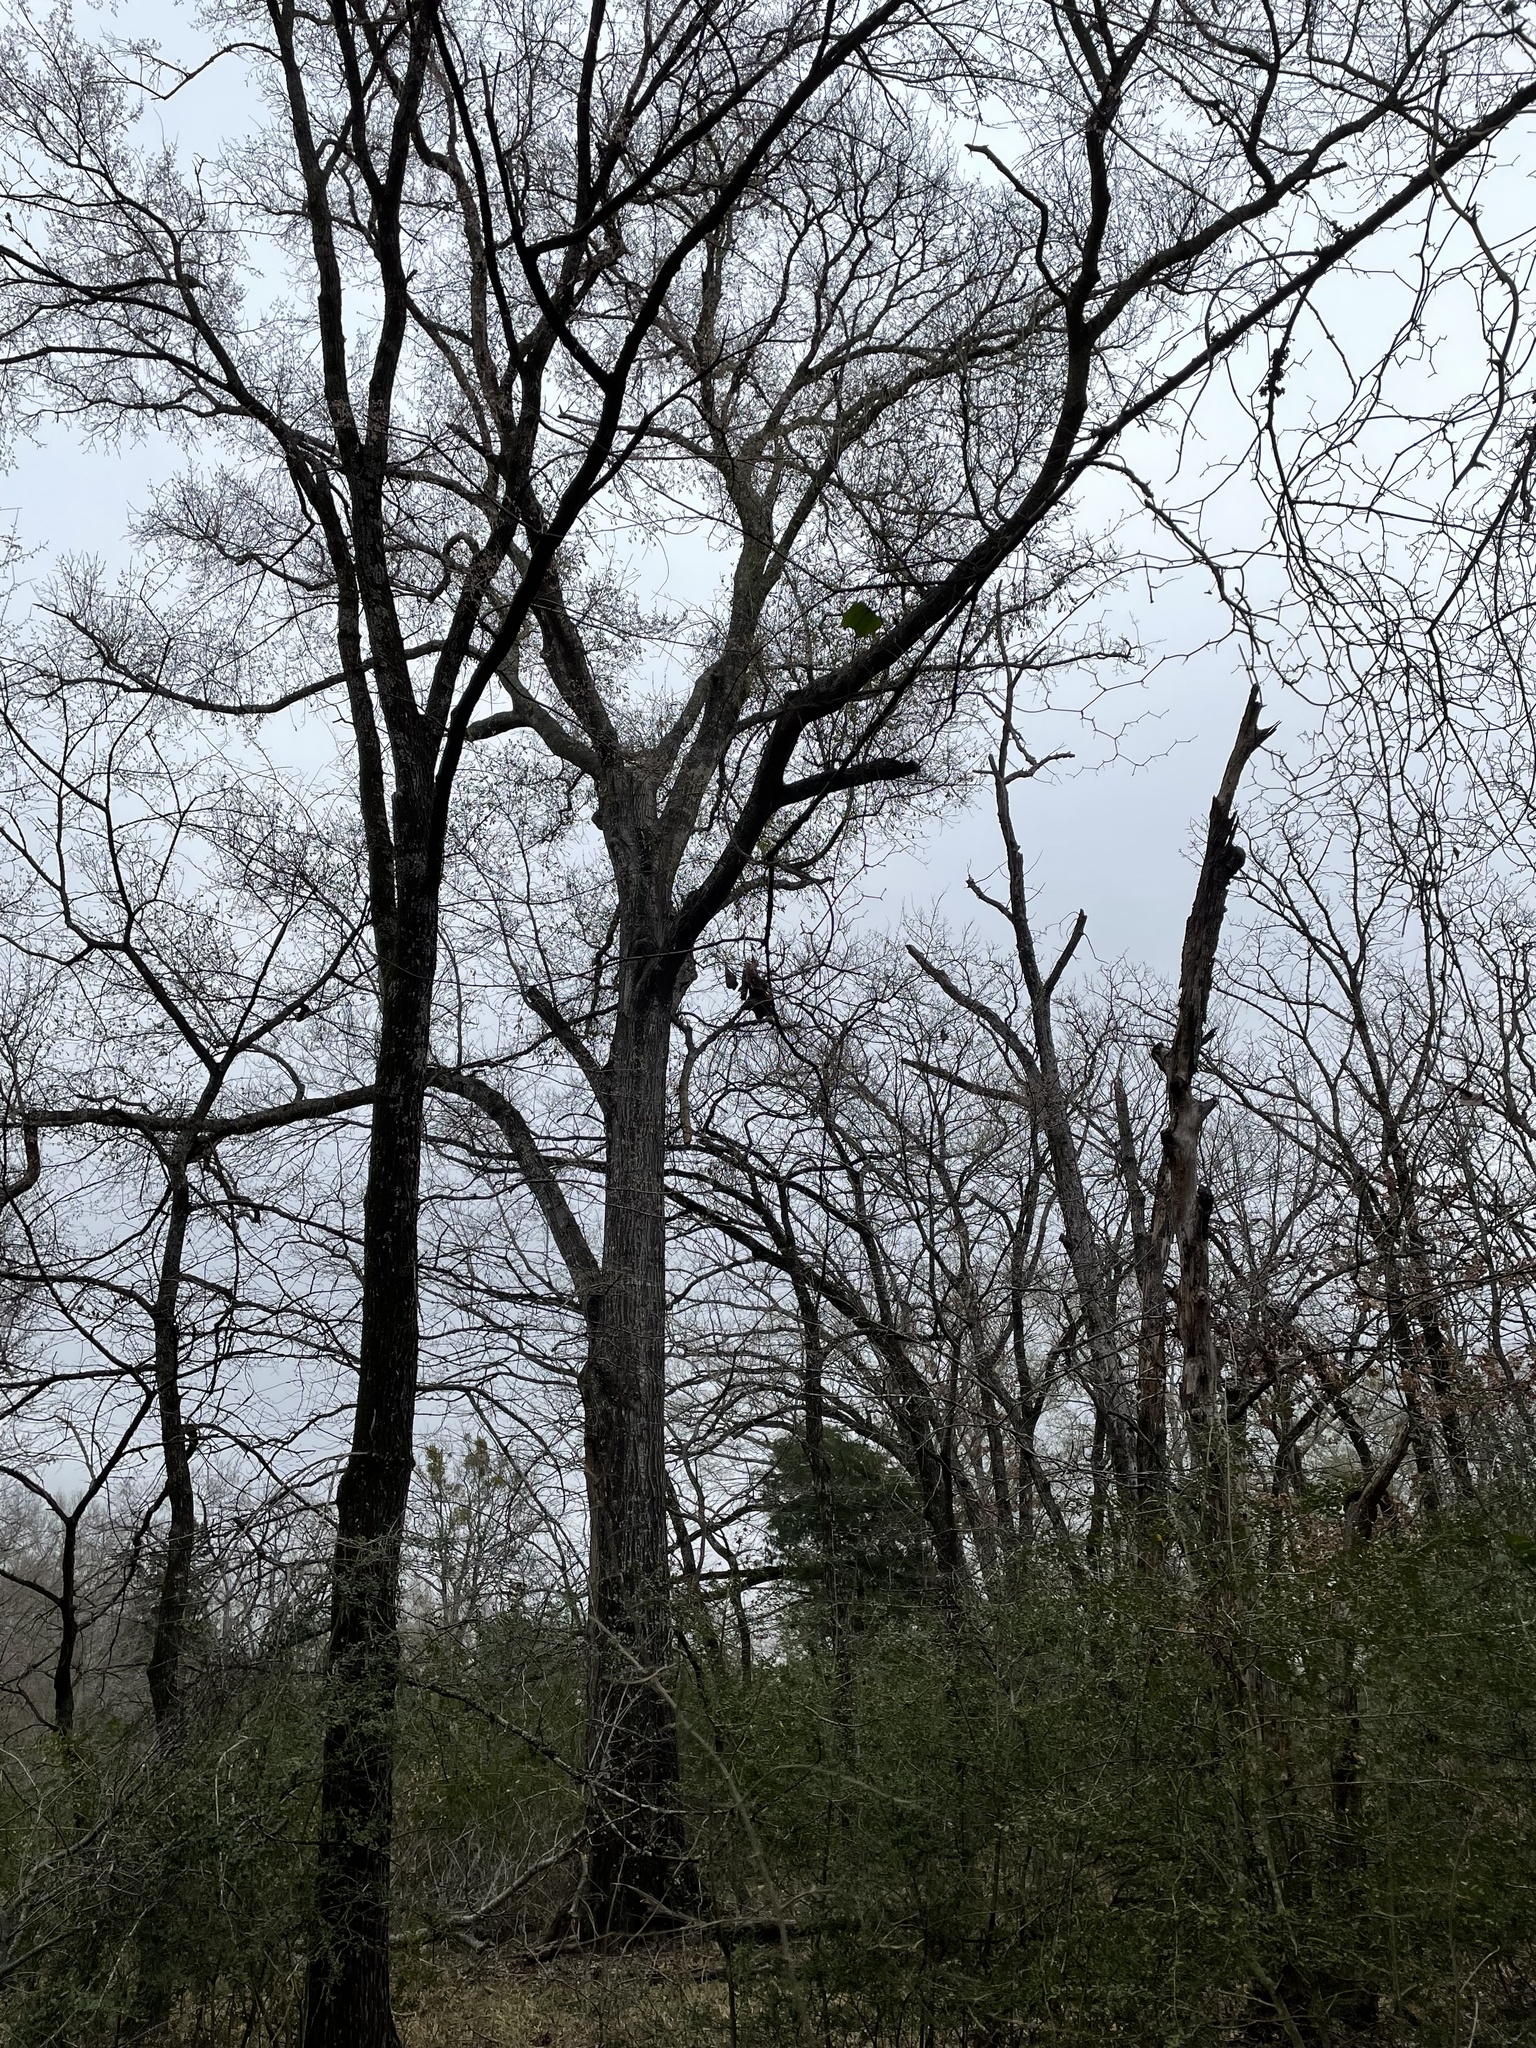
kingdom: Plantae
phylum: Tracheophyta
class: Magnoliopsida
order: Fagales
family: Fagaceae
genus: Quercus
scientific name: Quercus nigra
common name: Water oak
